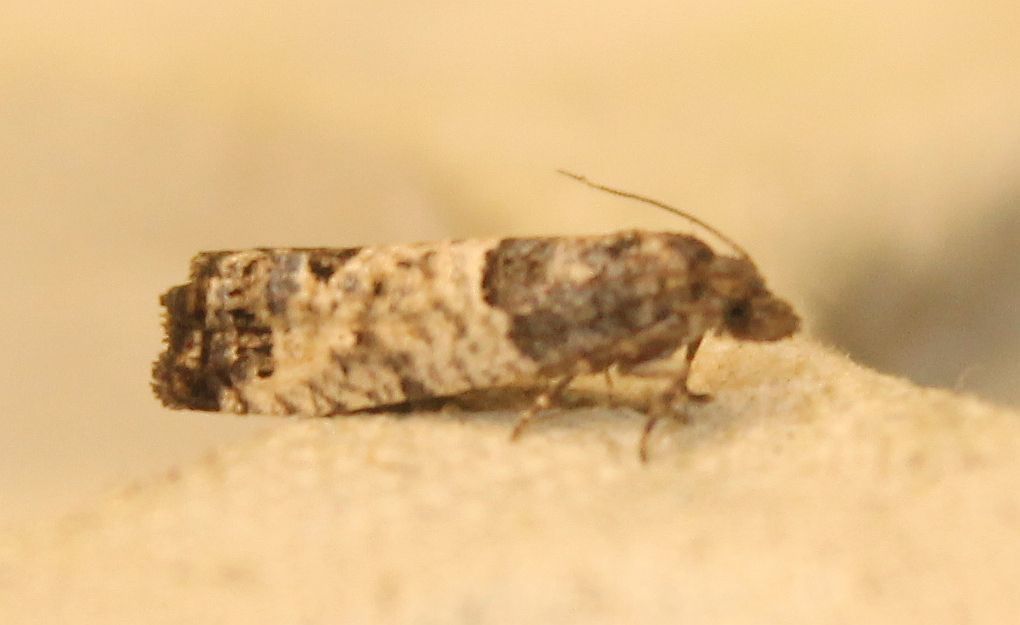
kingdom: Animalia
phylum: Arthropoda
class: Insecta
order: Lepidoptera
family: Tortricidae
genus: Spilonota
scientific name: Spilonota ocellana
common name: Bud moth
